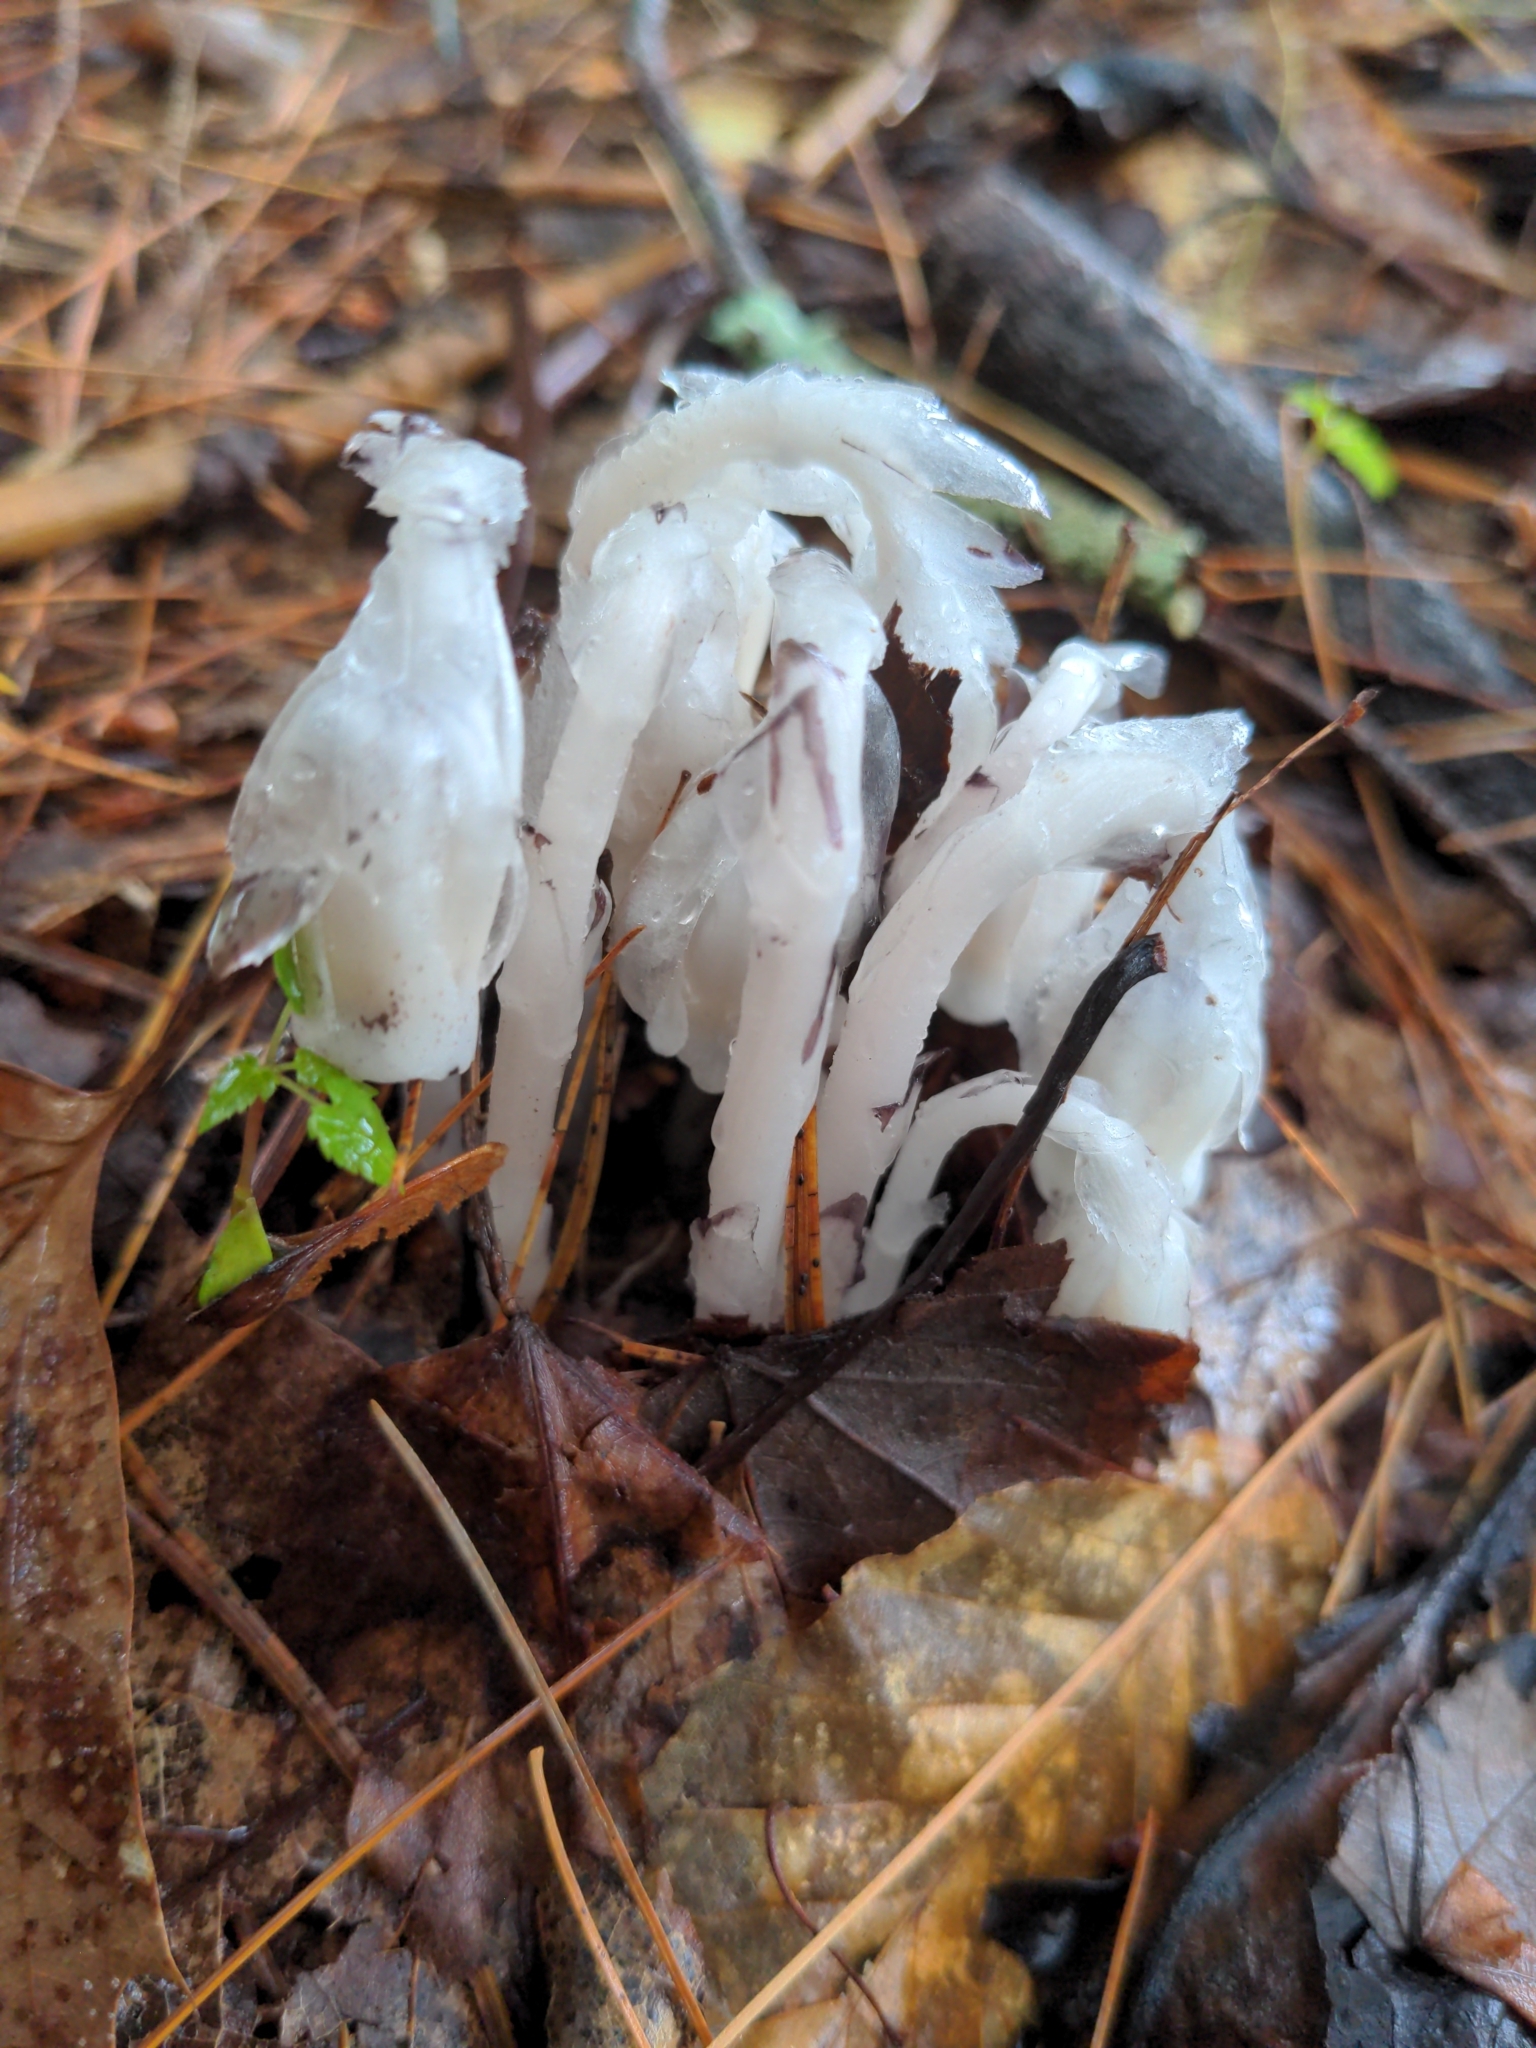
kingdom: Plantae
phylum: Tracheophyta
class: Magnoliopsida
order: Ericales
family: Ericaceae
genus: Monotropa
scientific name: Monotropa uniflora
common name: Convulsion root
